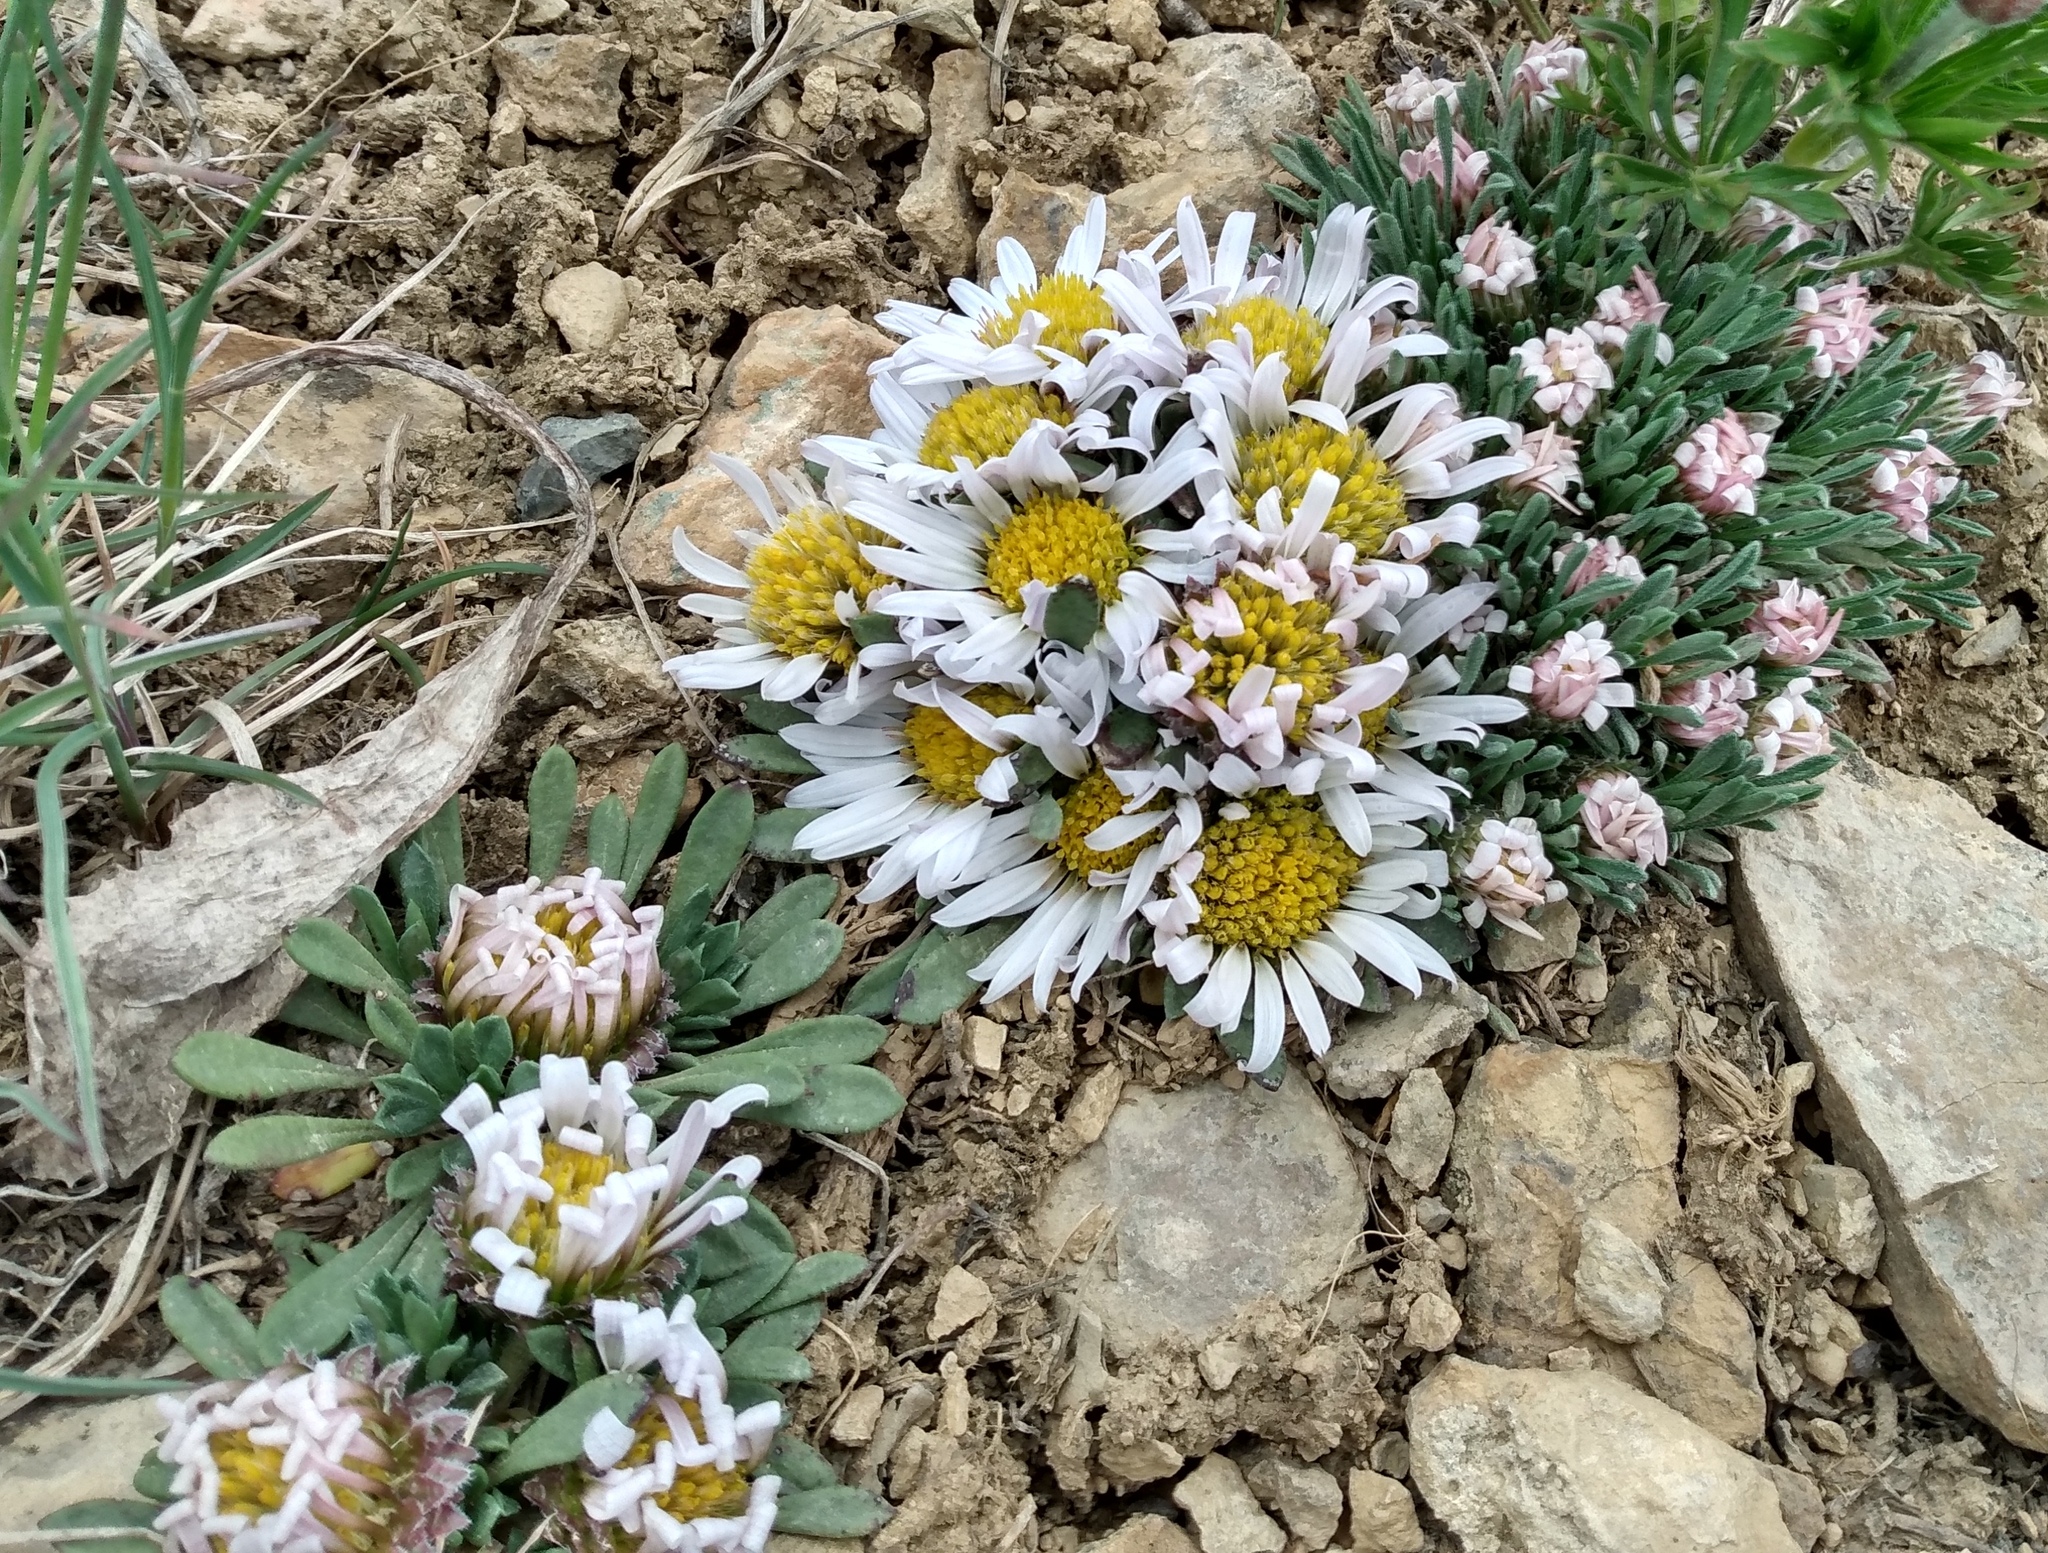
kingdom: Plantae
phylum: Tracheophyta
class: Magnoliopsida
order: Asterales
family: Asteraceae
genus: Townsendia
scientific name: Townsendia rothrockii
